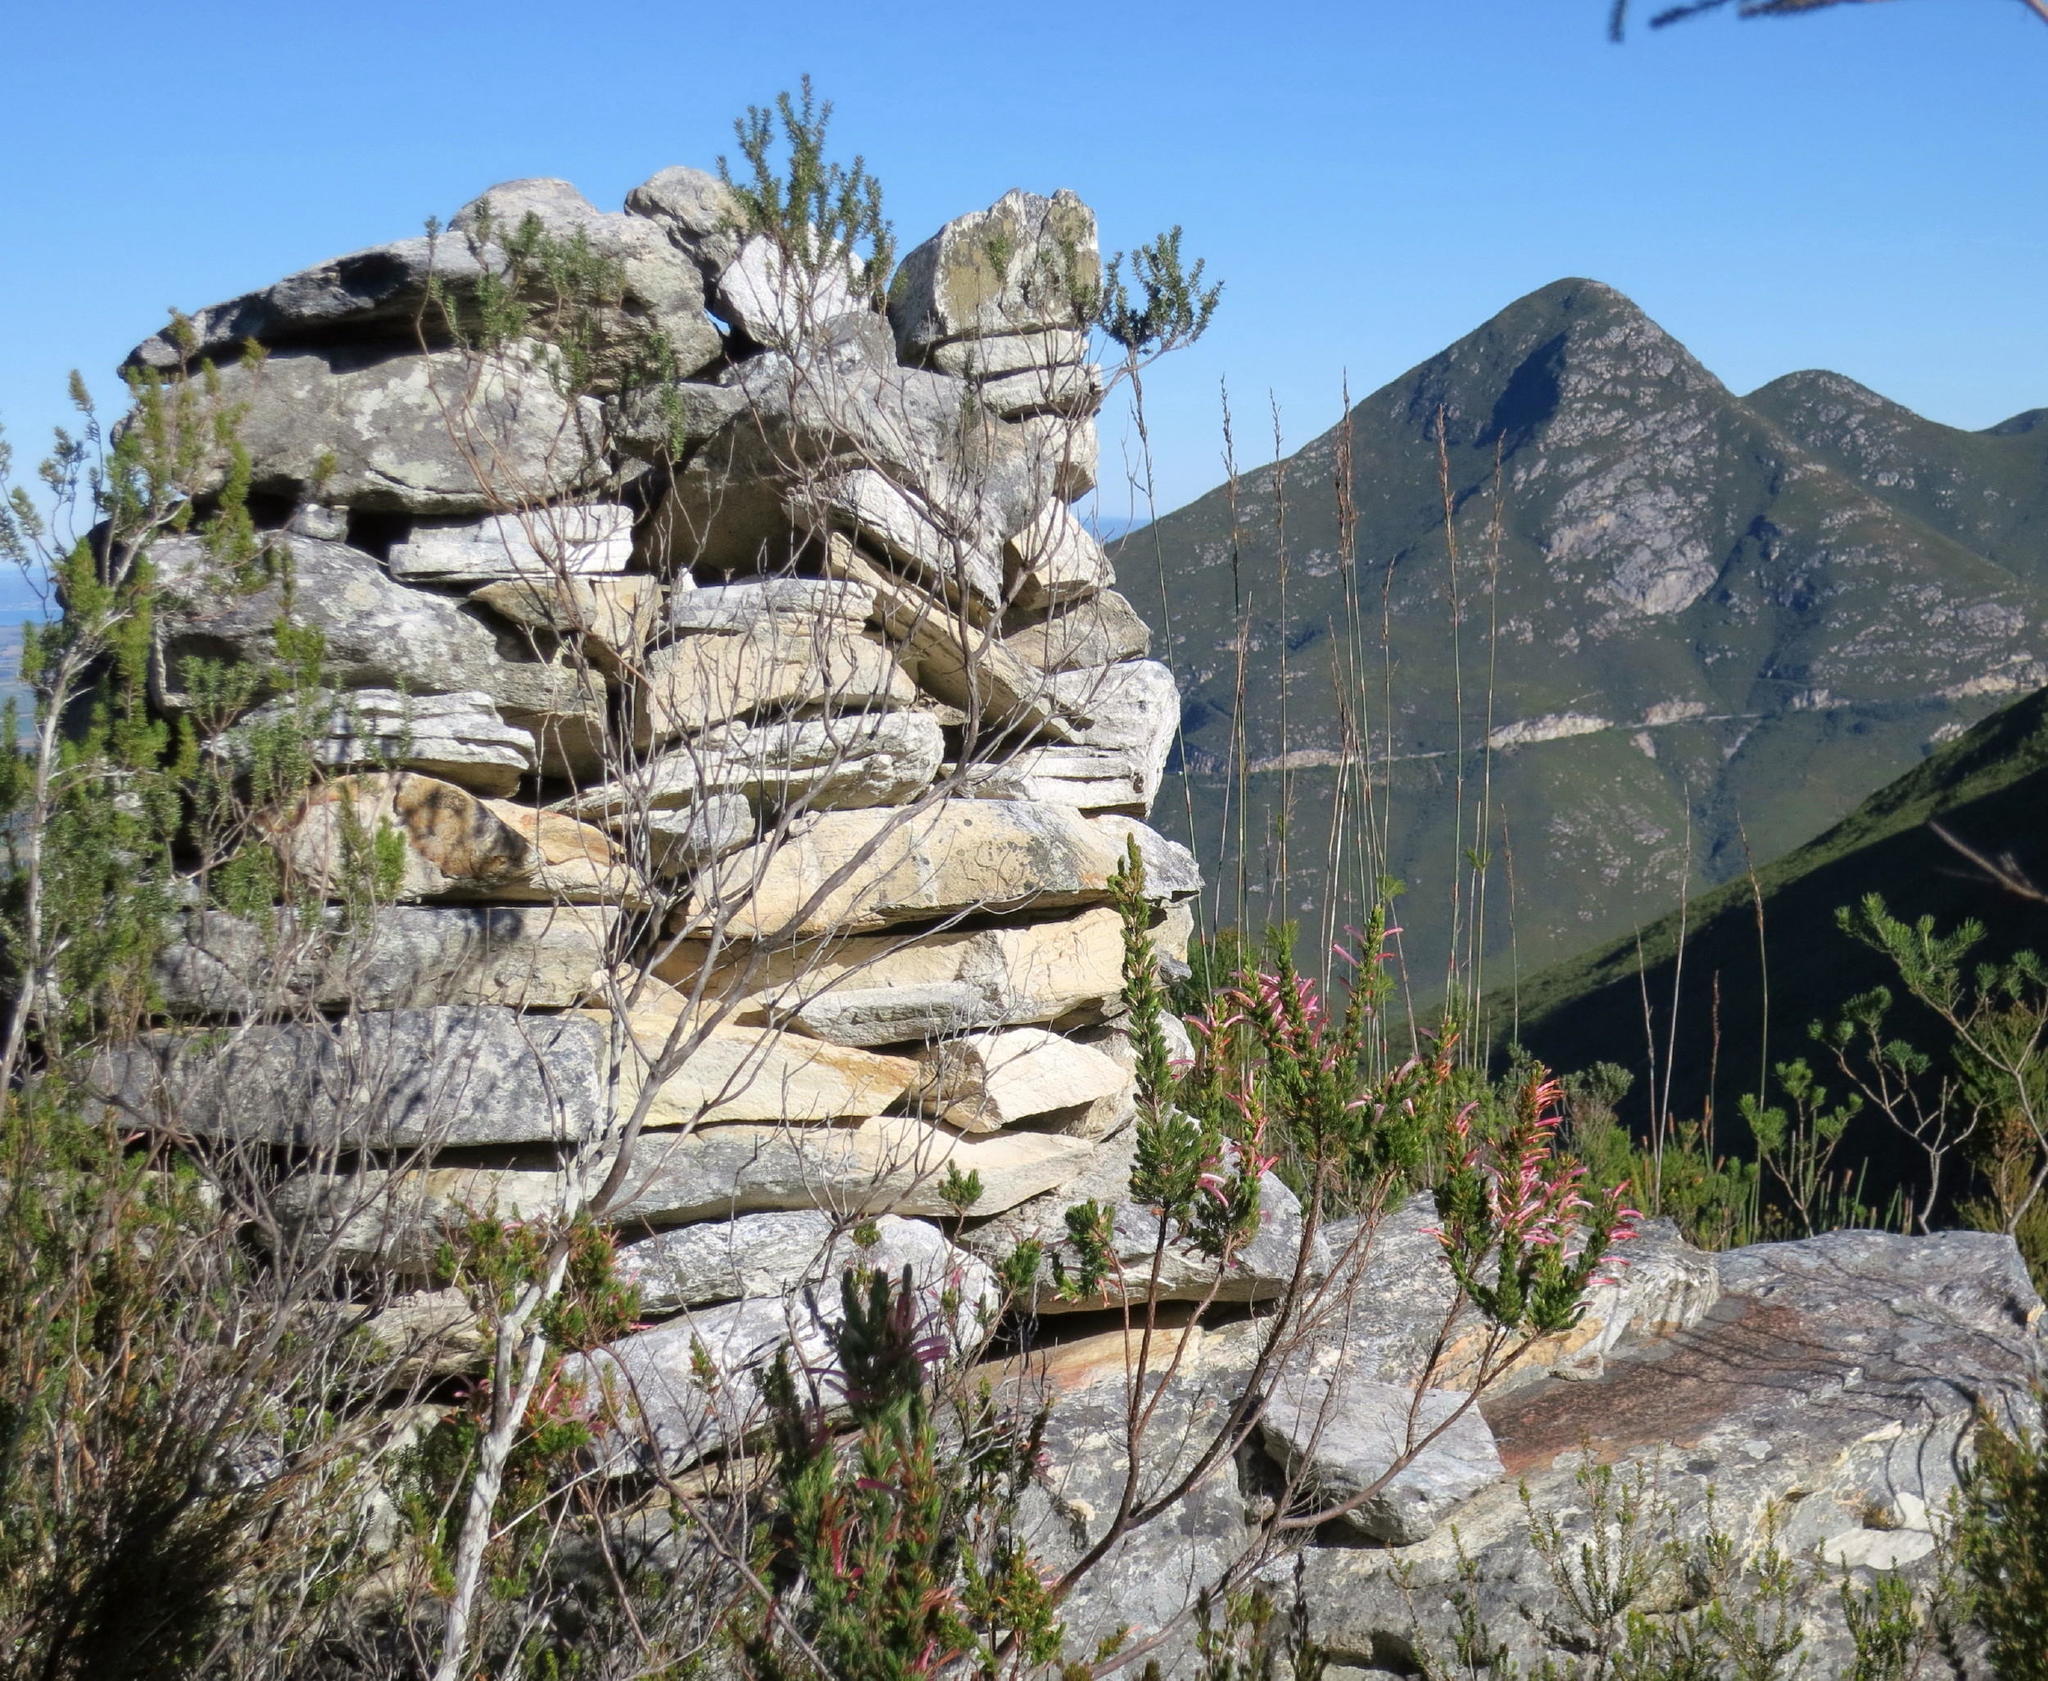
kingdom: Plantae
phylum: Tracheophyta
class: Magnoliopsida
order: Ericales
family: Ericaceae
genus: Erica
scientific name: Erica curviflora
